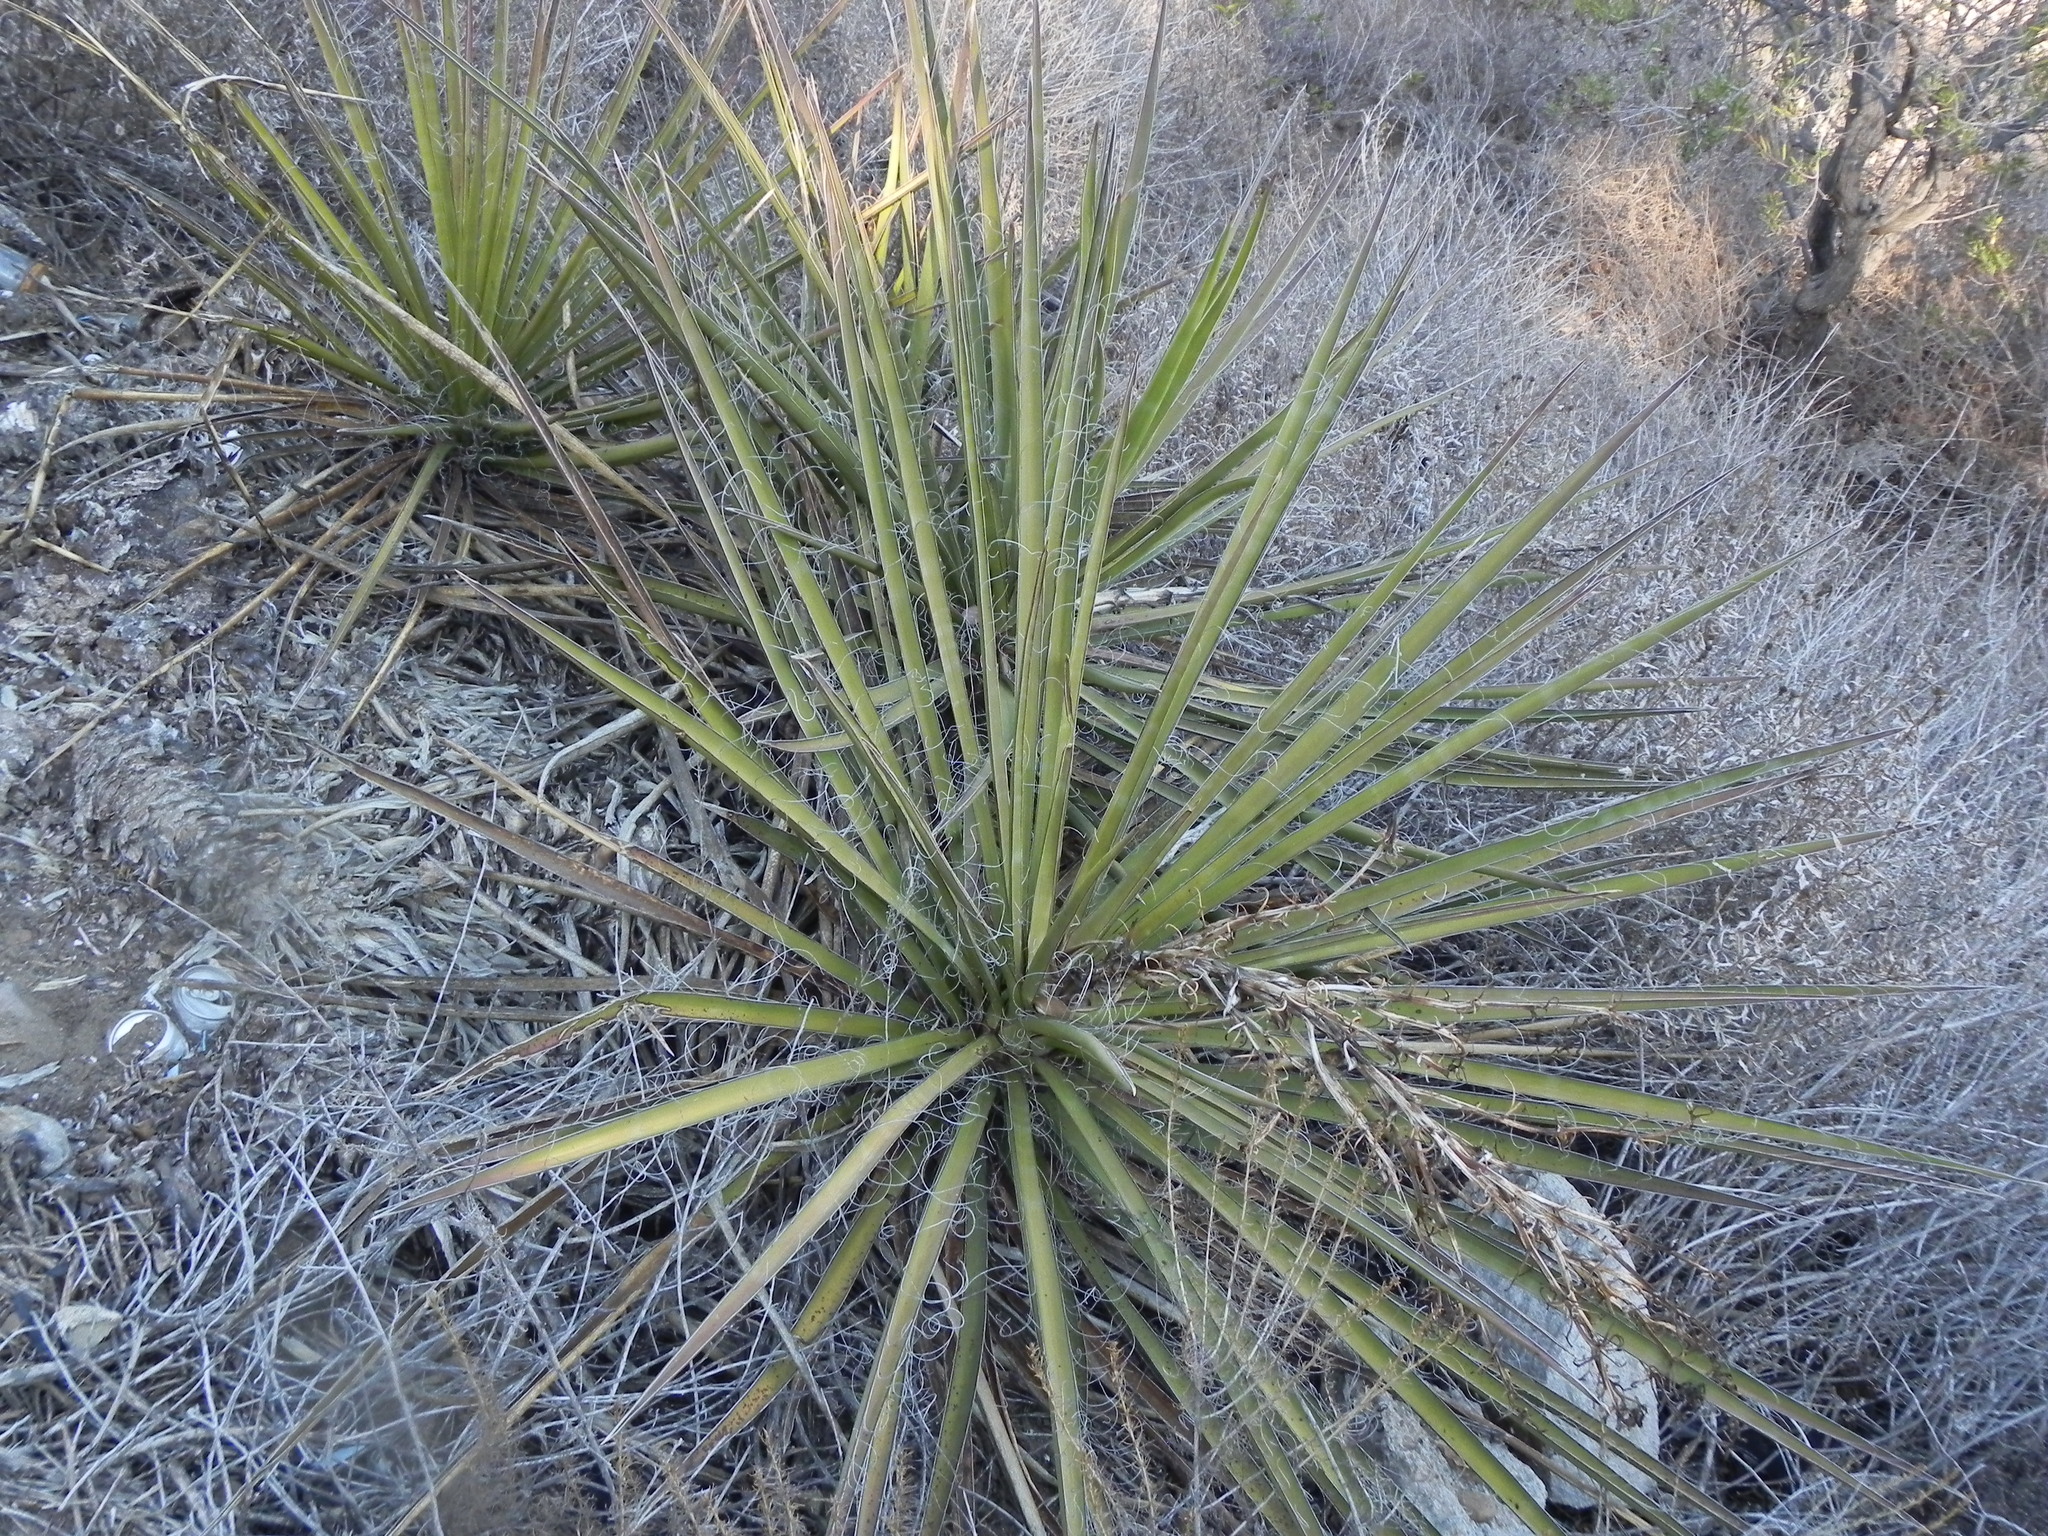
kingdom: Plantae
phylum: Tracheophyta
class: Liliopsida
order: Asparagales
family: Asparagaceae
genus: Yucca
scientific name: Yucca schidigera
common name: Mojave yucca
